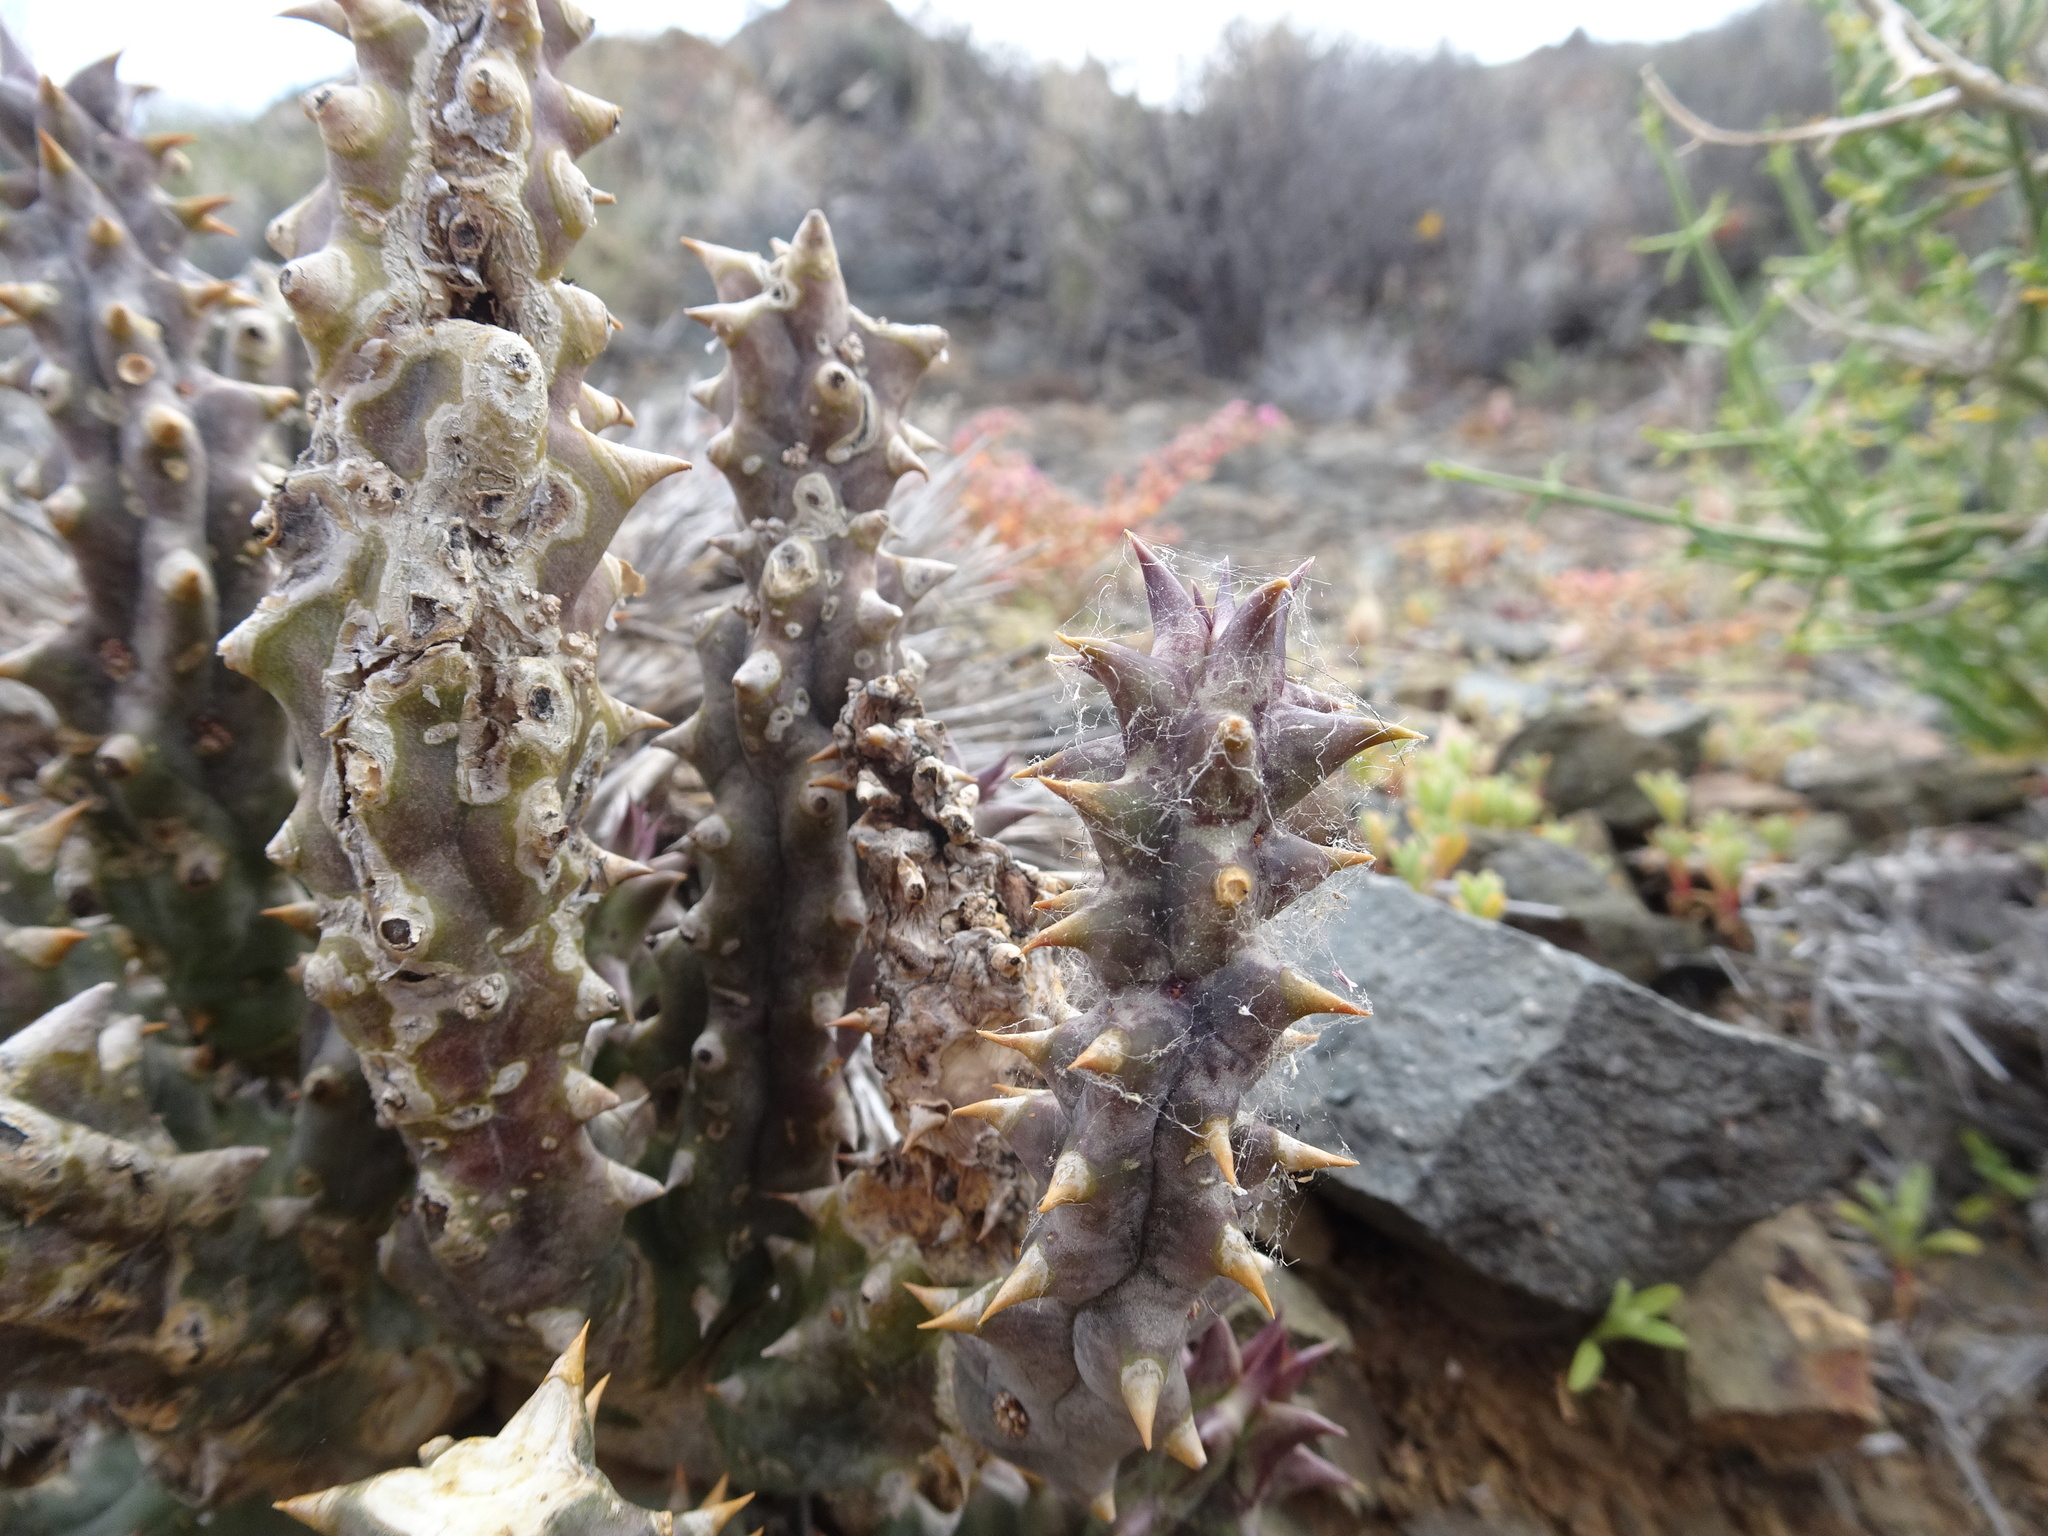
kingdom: Plantae
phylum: Tracheophyta
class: Magnoliopsida
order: Gentianales
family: Apocynaceae
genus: Ceropegia
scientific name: Ceropegia mammillaris
